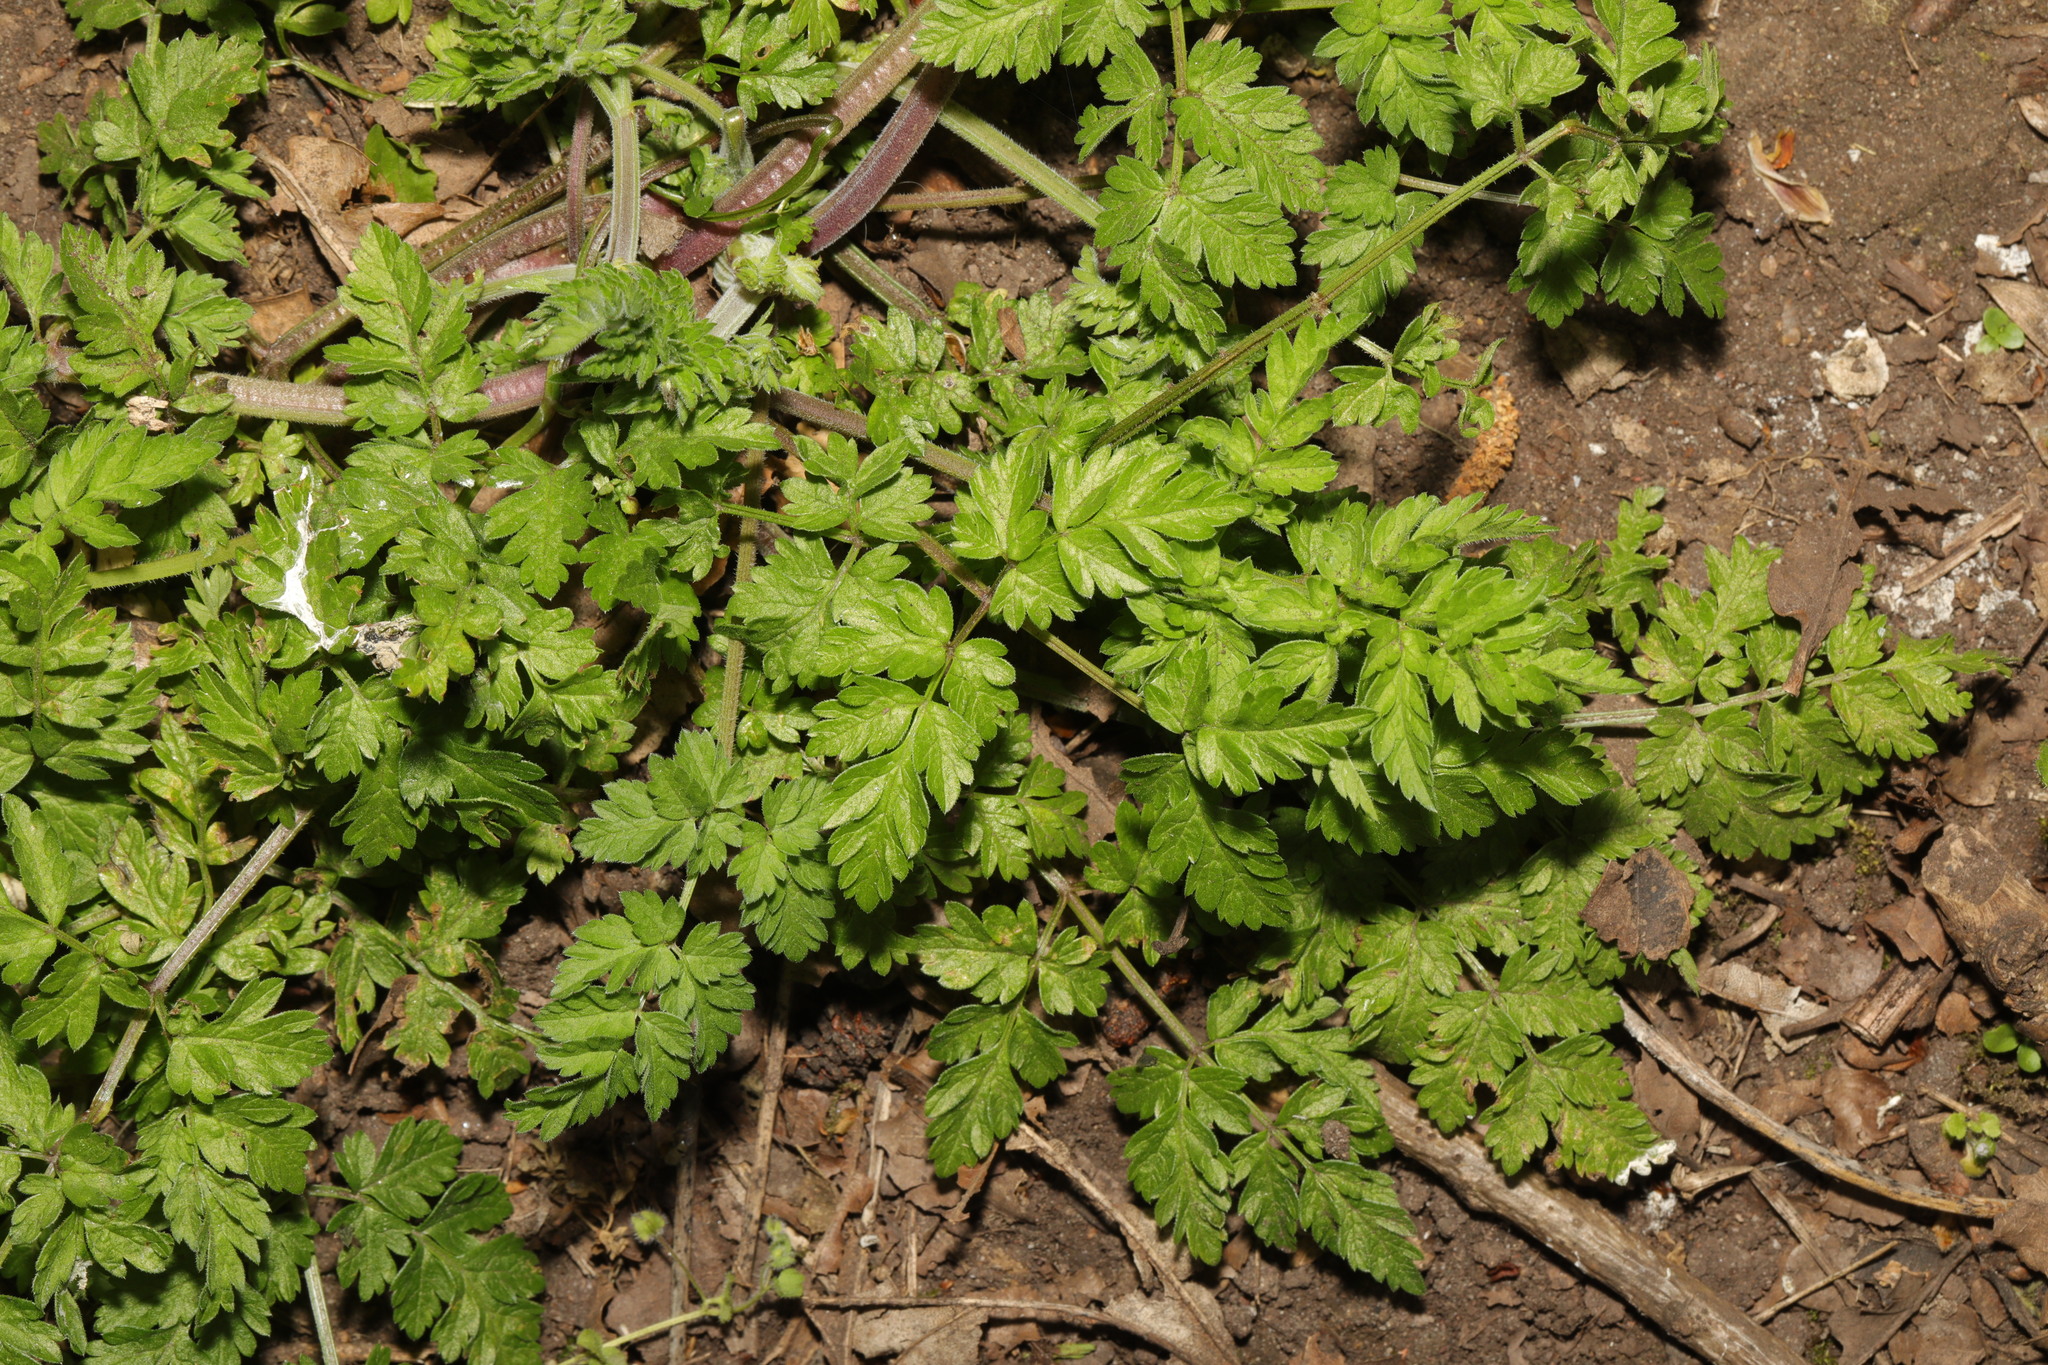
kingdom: Plantae
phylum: Tracheophyta
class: Magnoliopsida
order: Apiales
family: Apiaceae
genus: Anthriscus
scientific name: Anthriscus sylvestris
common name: Cow parsley
